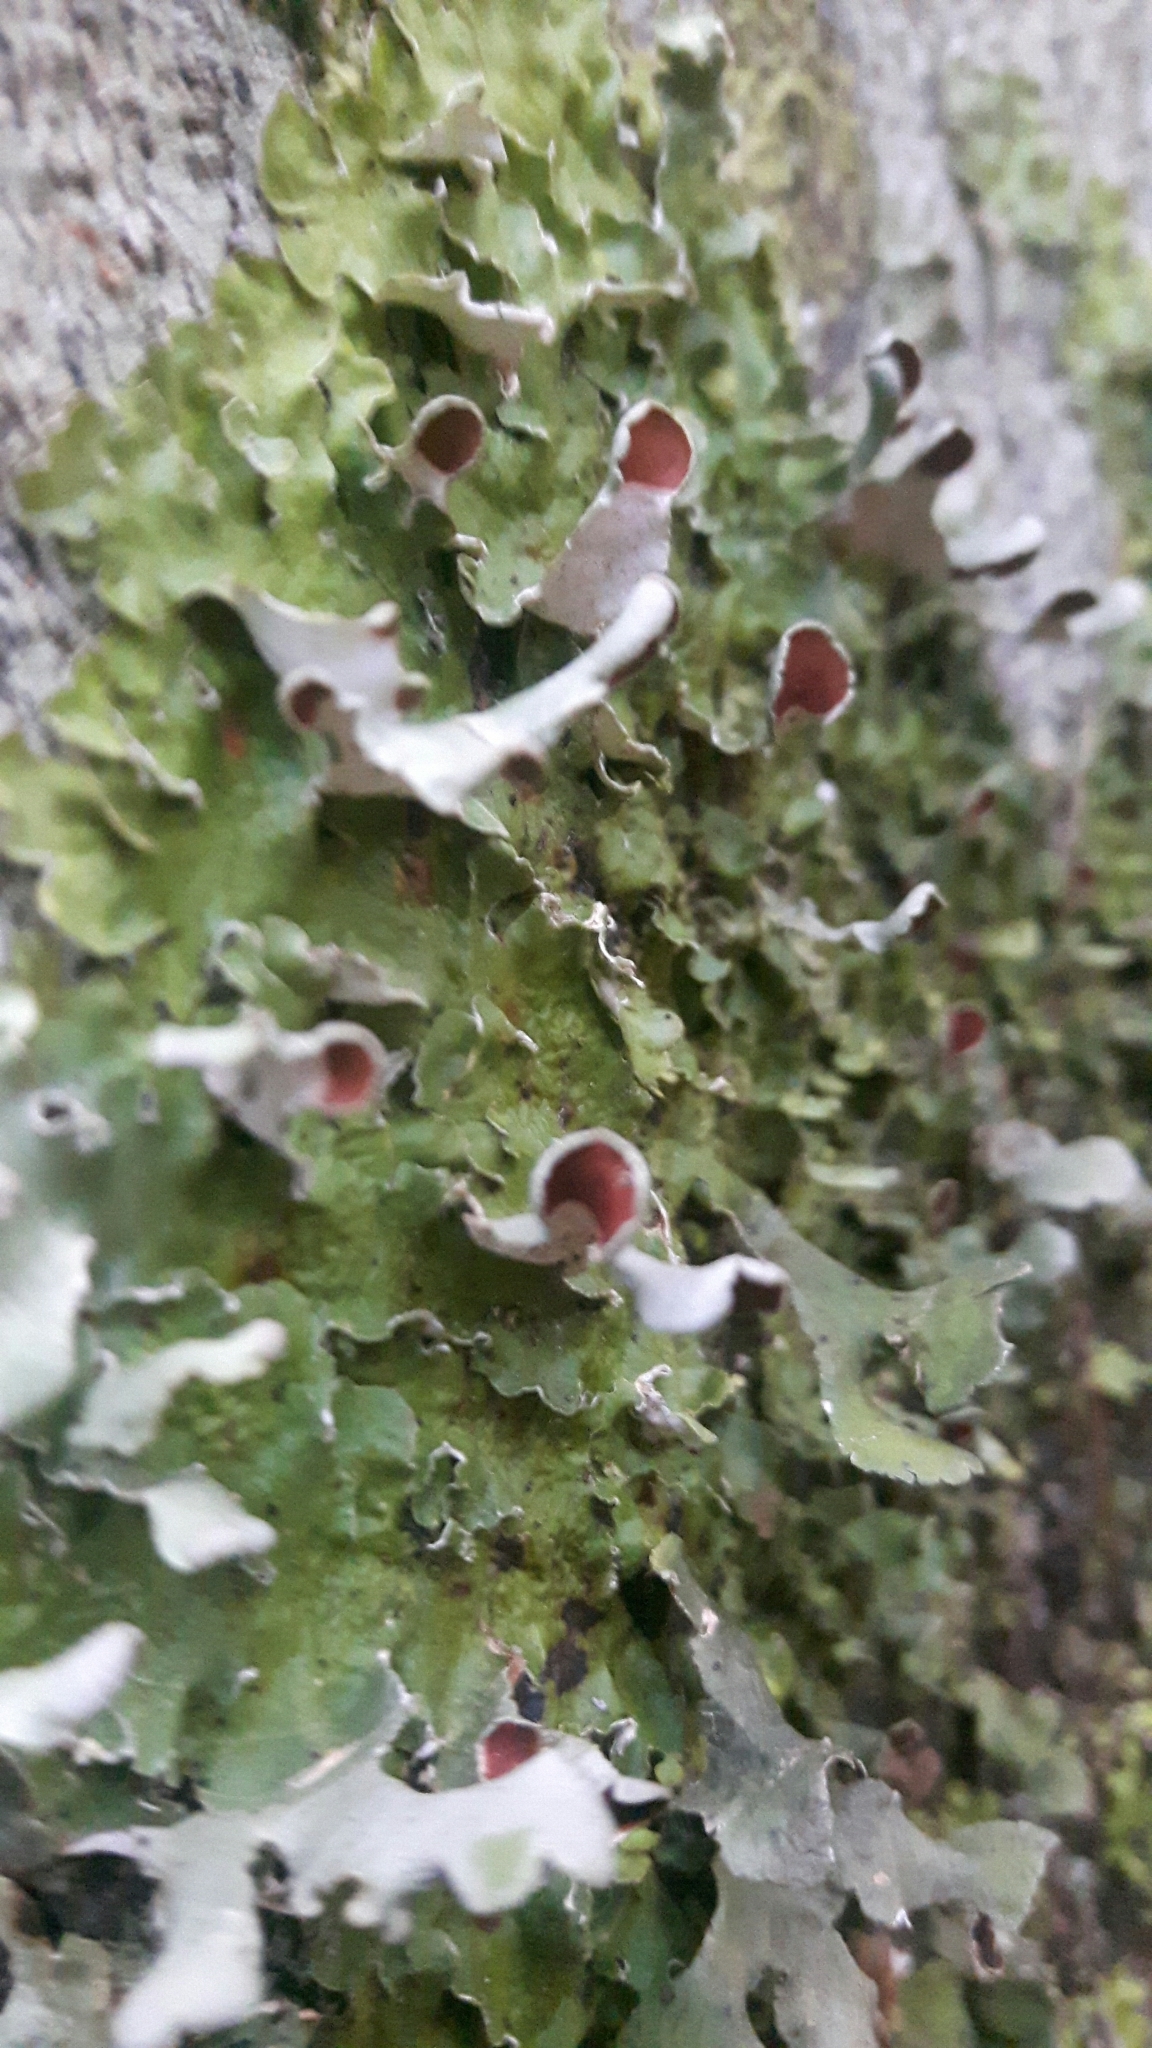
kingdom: Fungi
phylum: Ascomycota
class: Lecanoromycetes
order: Peltigerales
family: Nephromataceae
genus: Nephroma
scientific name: Nephroma australe
